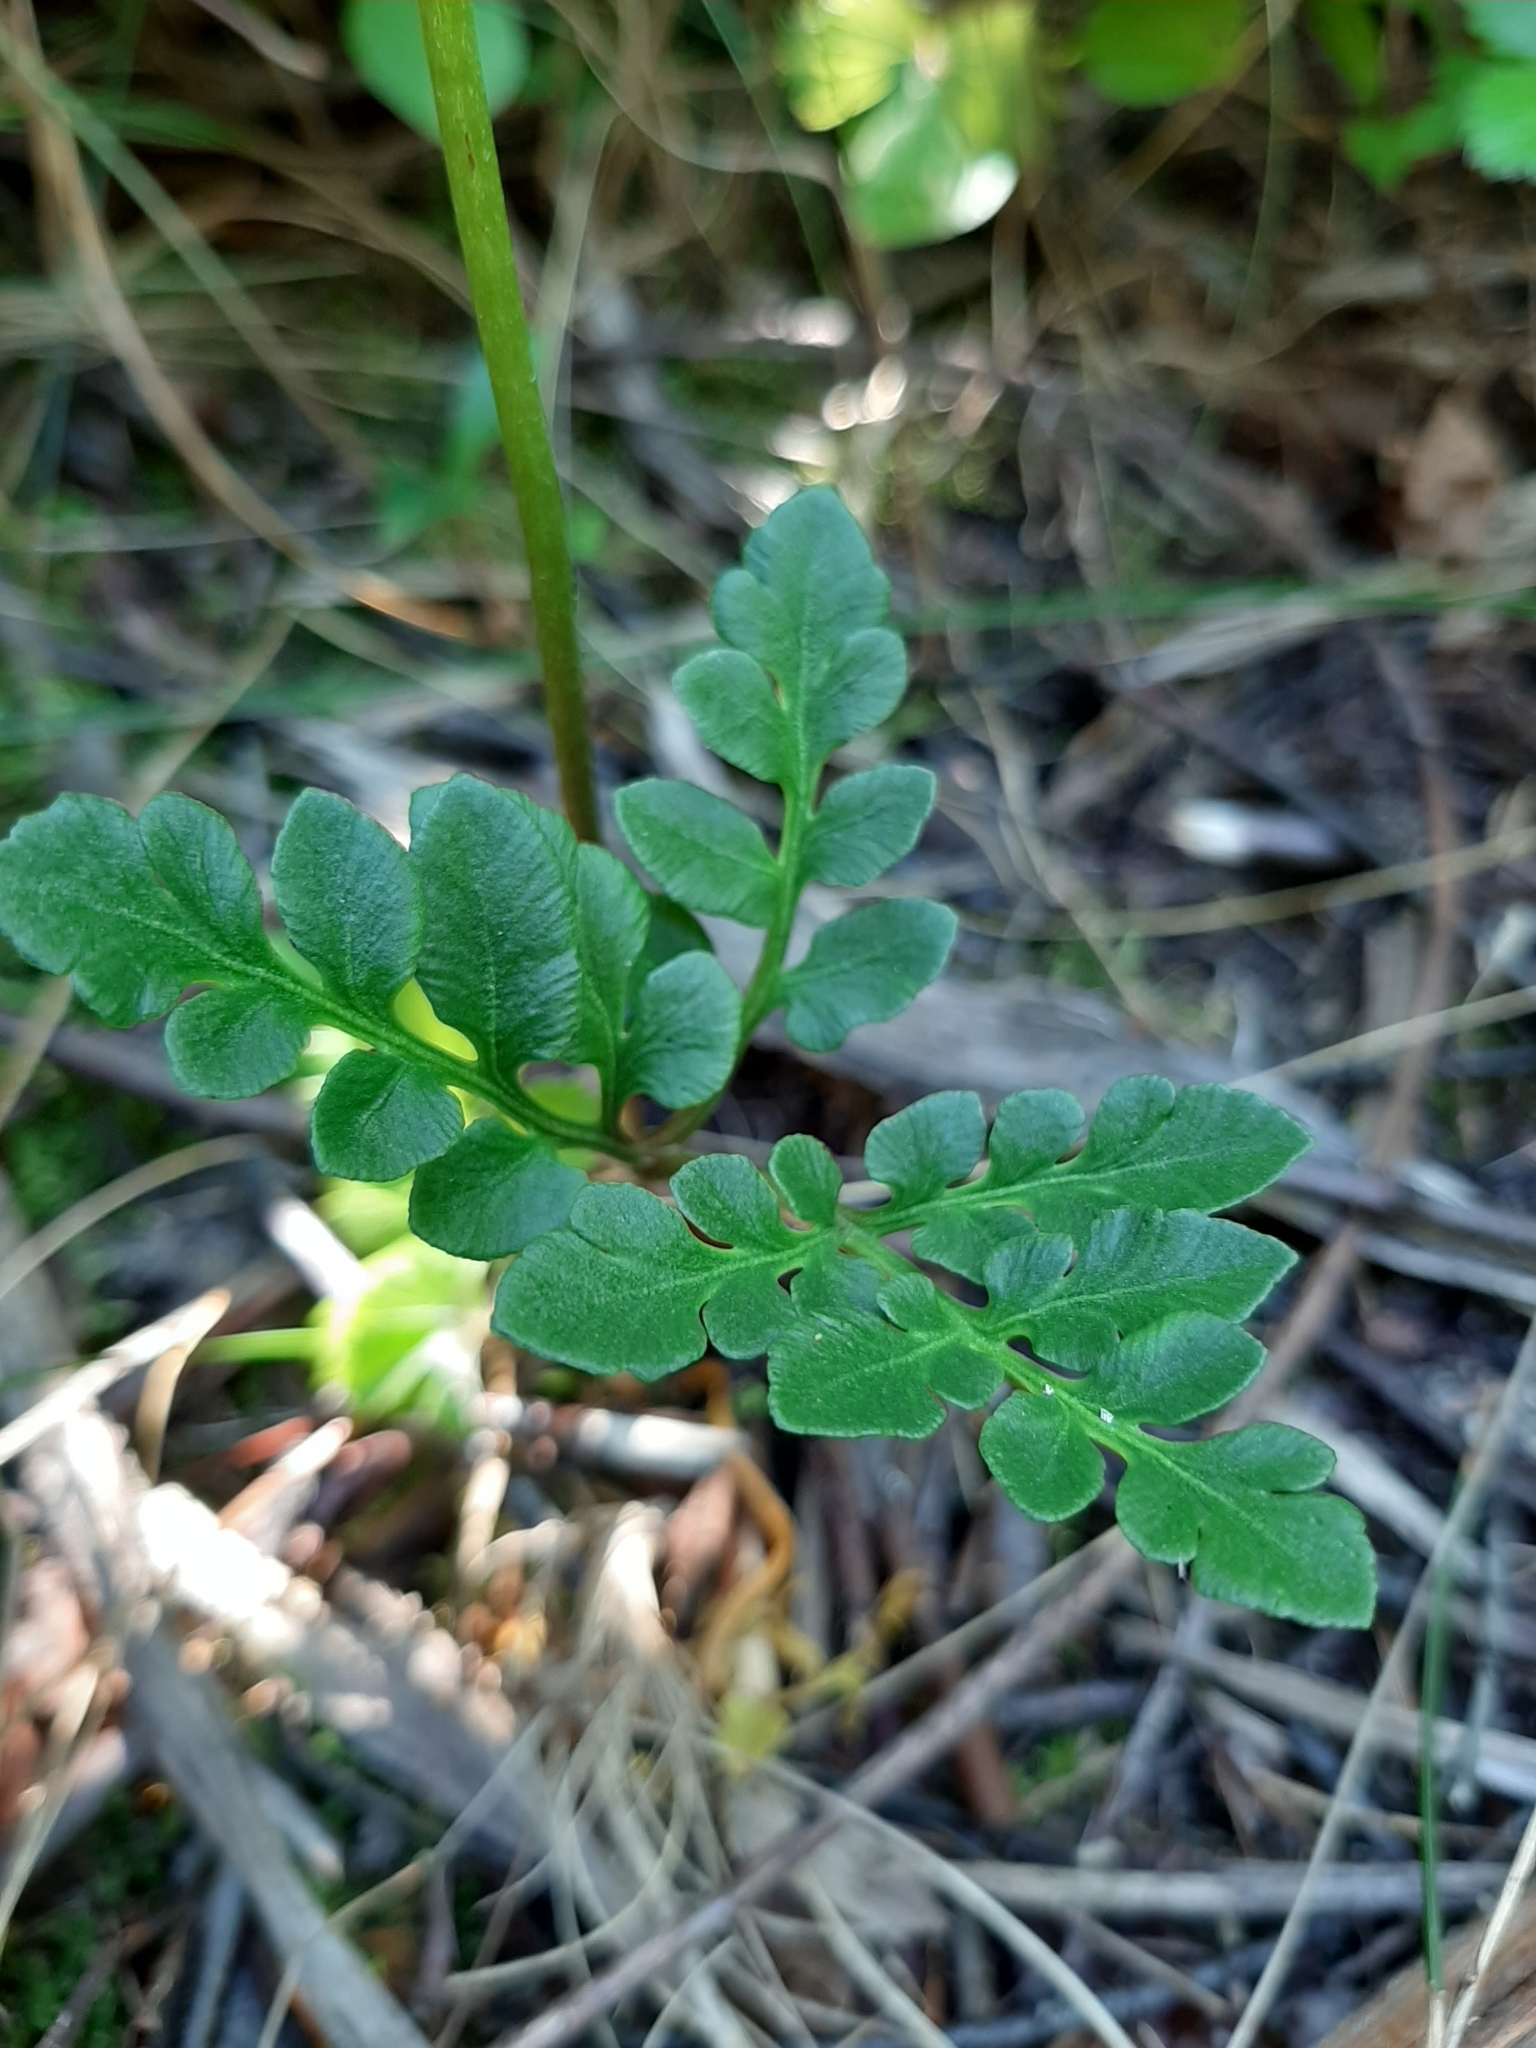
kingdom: Plantae
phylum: Tracheophyta
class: Polypodiopsida
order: Ophioglossales
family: Ophioglossaceae
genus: Sceptridium
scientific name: Sceptridium multifidum
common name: Leathery grape fern
